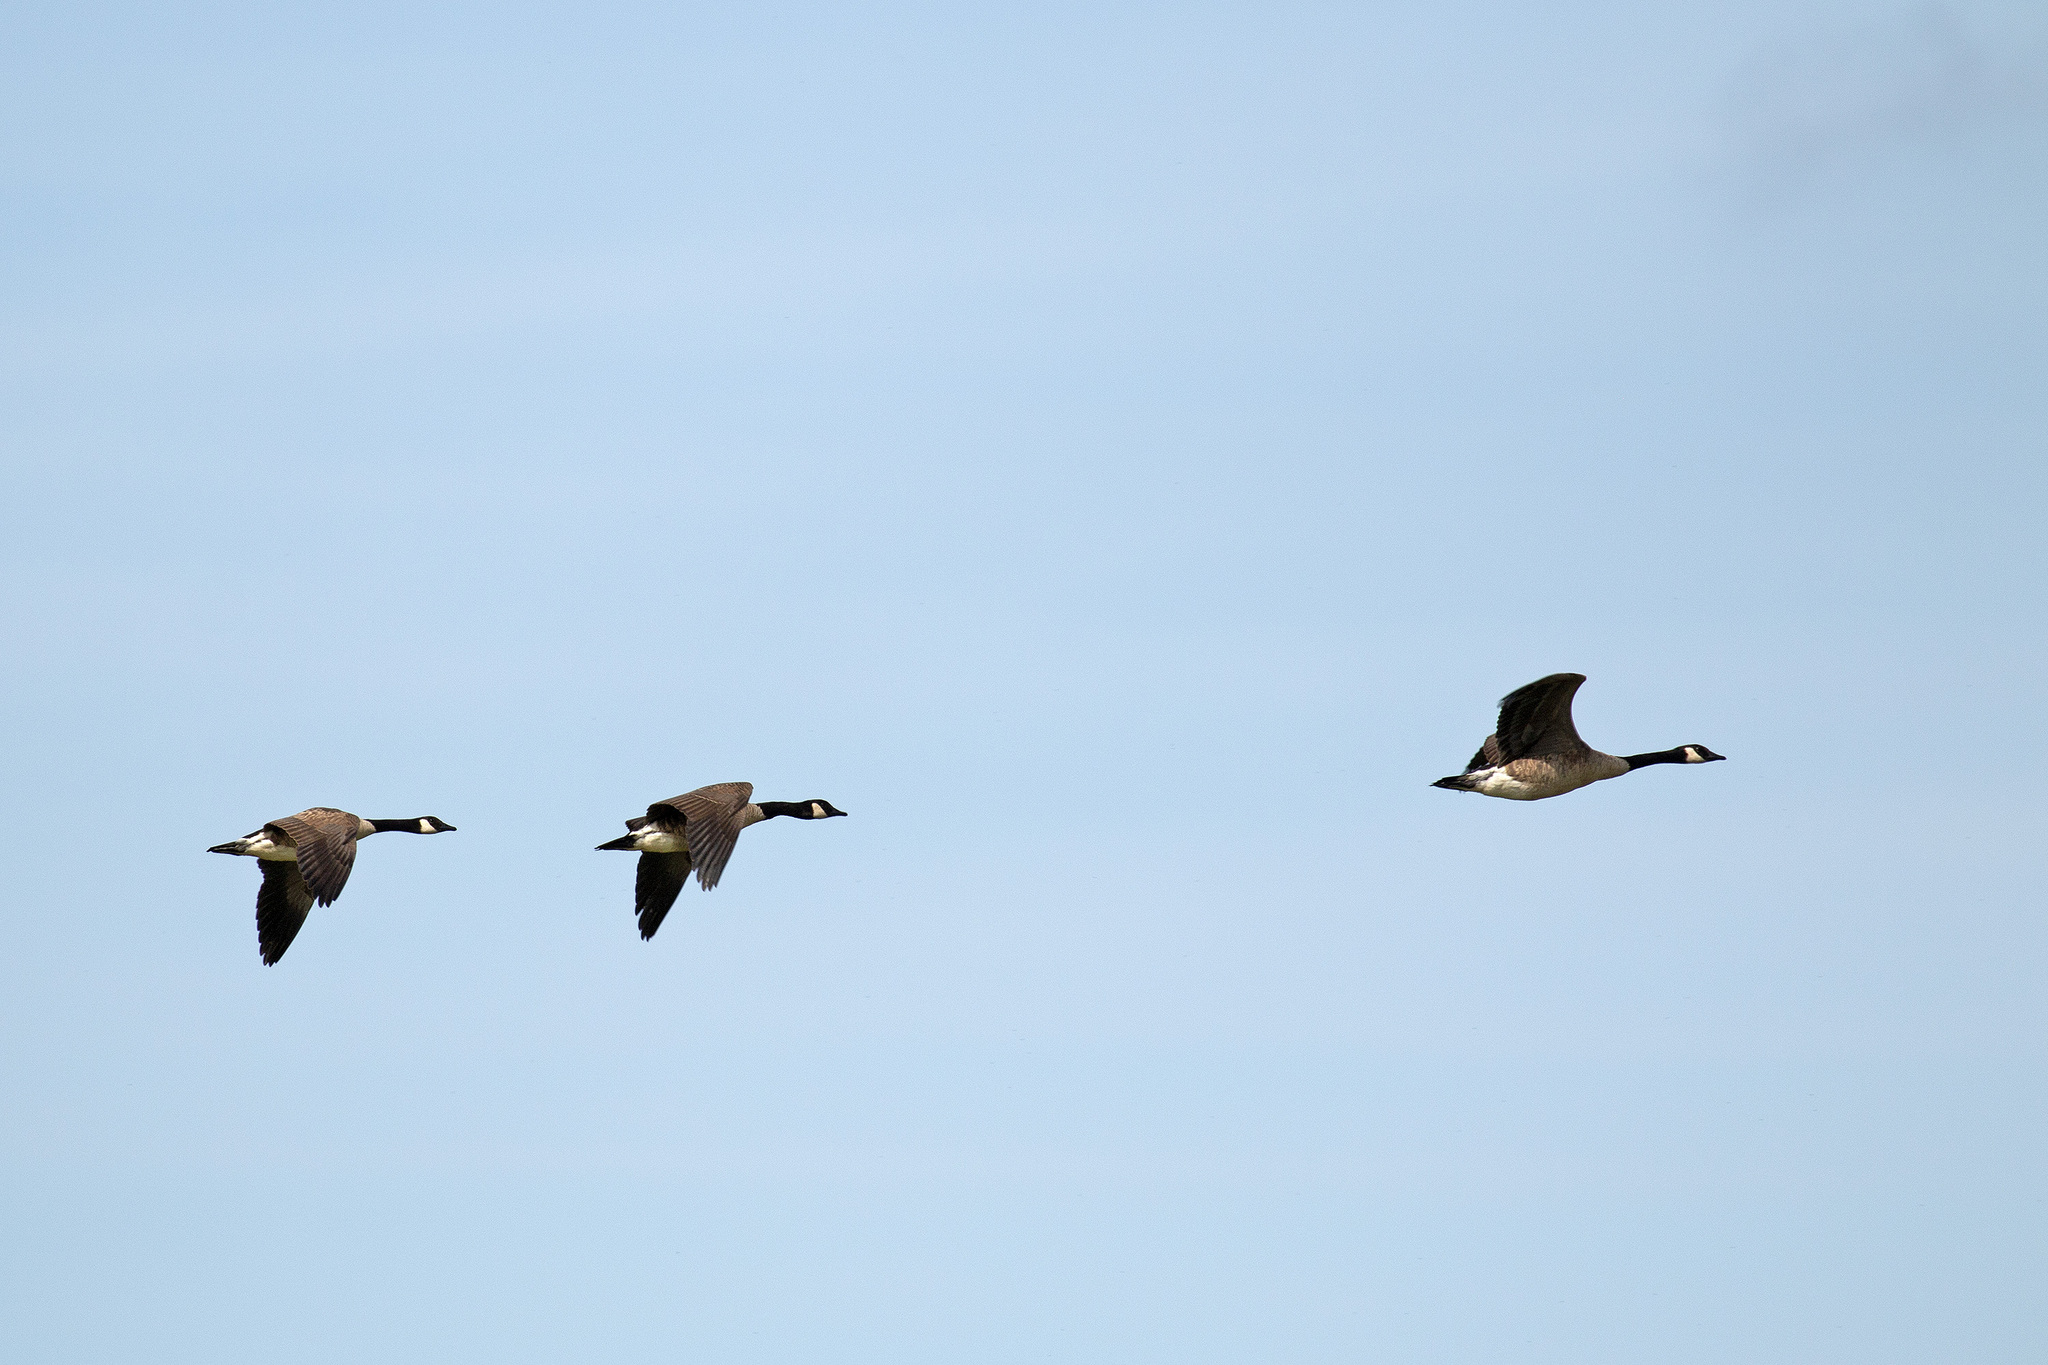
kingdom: Animalia
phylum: Chordata
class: Aves
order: Anseriformes
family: Anatidae
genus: Branta
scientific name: Branta canadensis
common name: Canada goose
